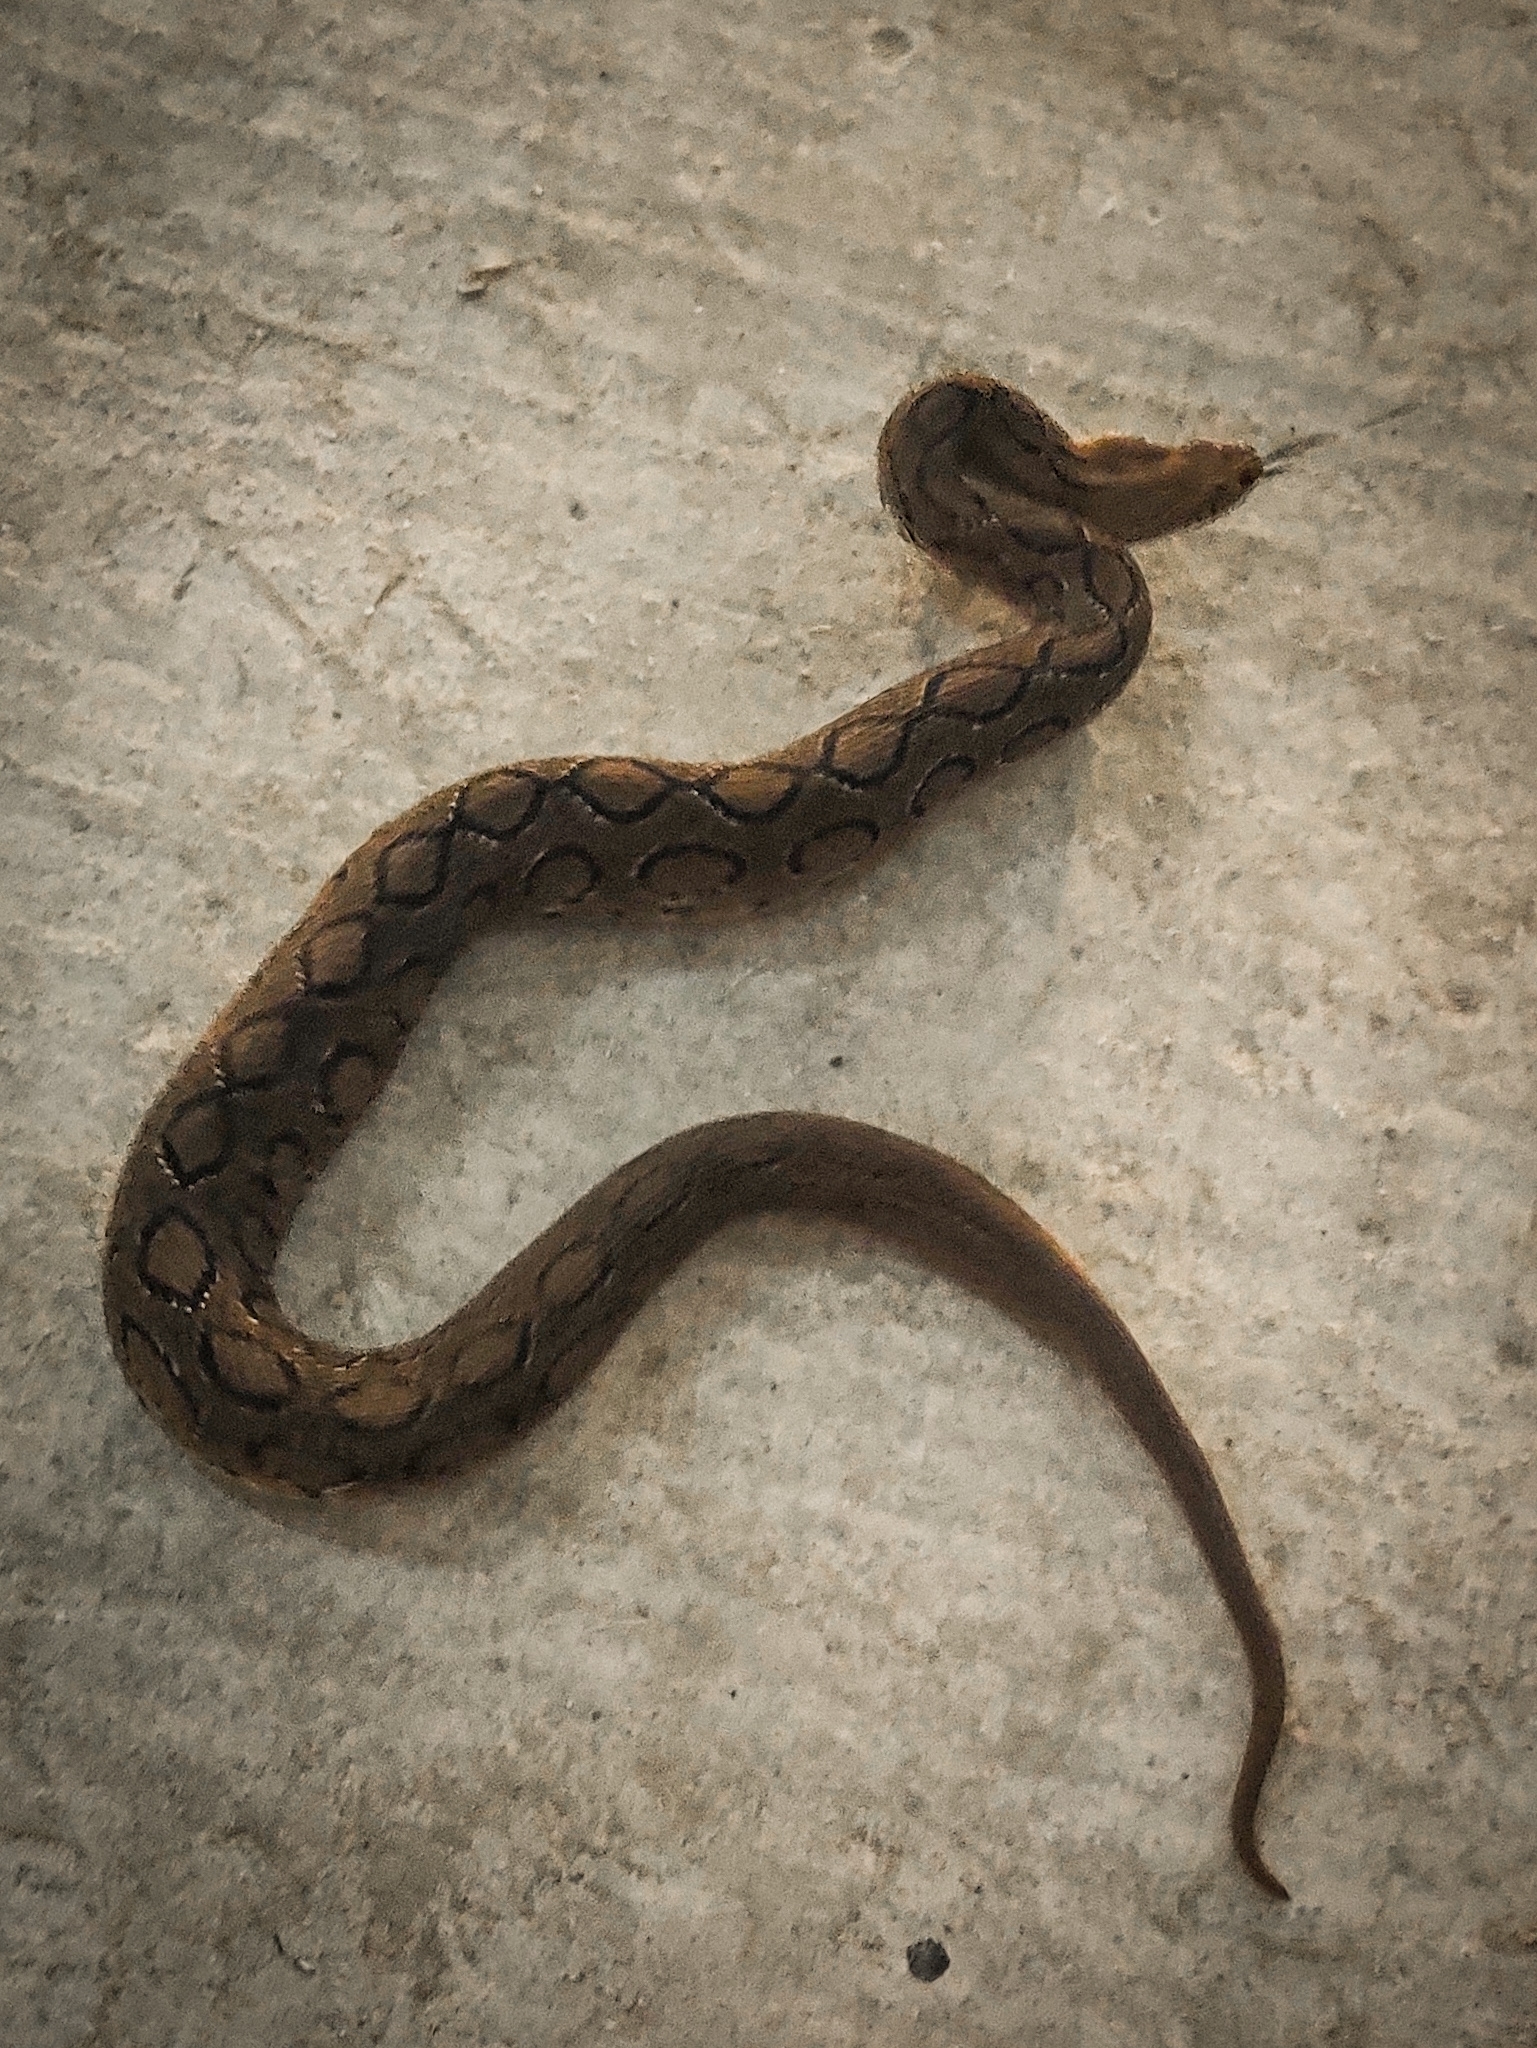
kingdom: Animalia
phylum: Chordata
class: Squamata
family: Viperidae
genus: Daboia
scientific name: Daboia russelii
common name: Western russel’s viper
